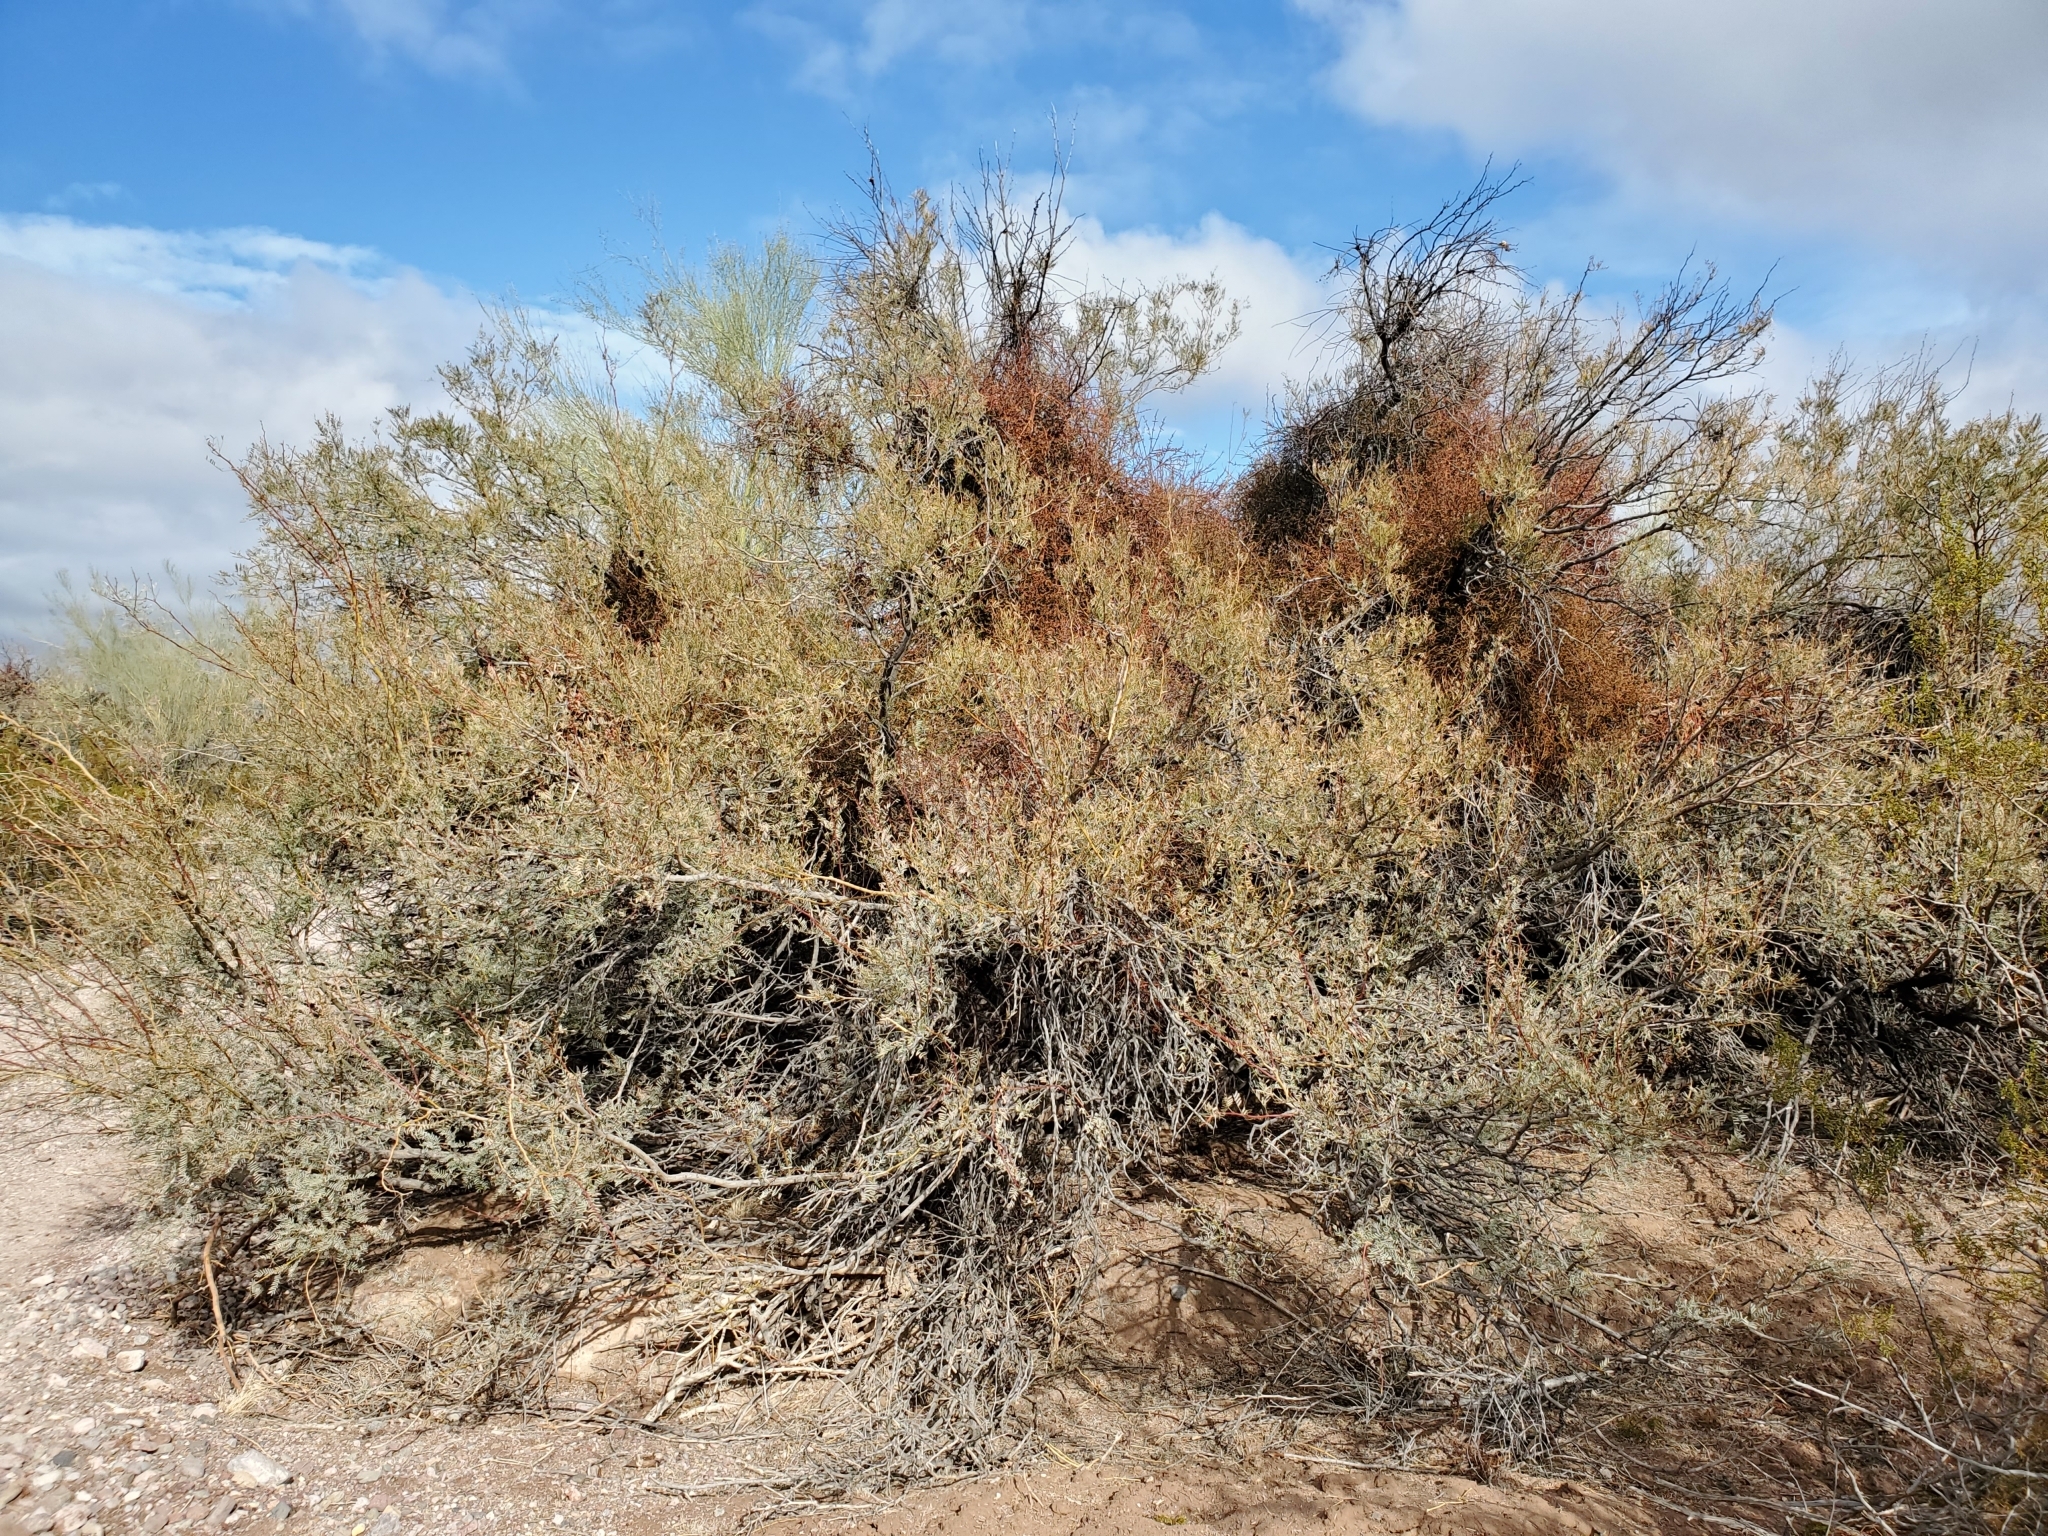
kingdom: Plantae
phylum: Tracheophyta
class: Magnoliopsida
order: Santalales
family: Viscaceae
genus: Phoradendron
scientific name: Phoradendron californicum
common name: Acacia mistletoe
